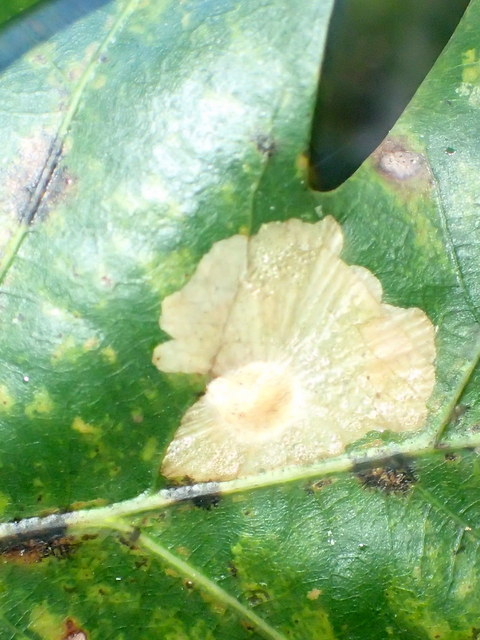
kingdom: Animalia
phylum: Arthropoda
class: Insecta
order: Lepidoptera
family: Tischeriidae
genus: Tischeria
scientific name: Tischeria quercitella
